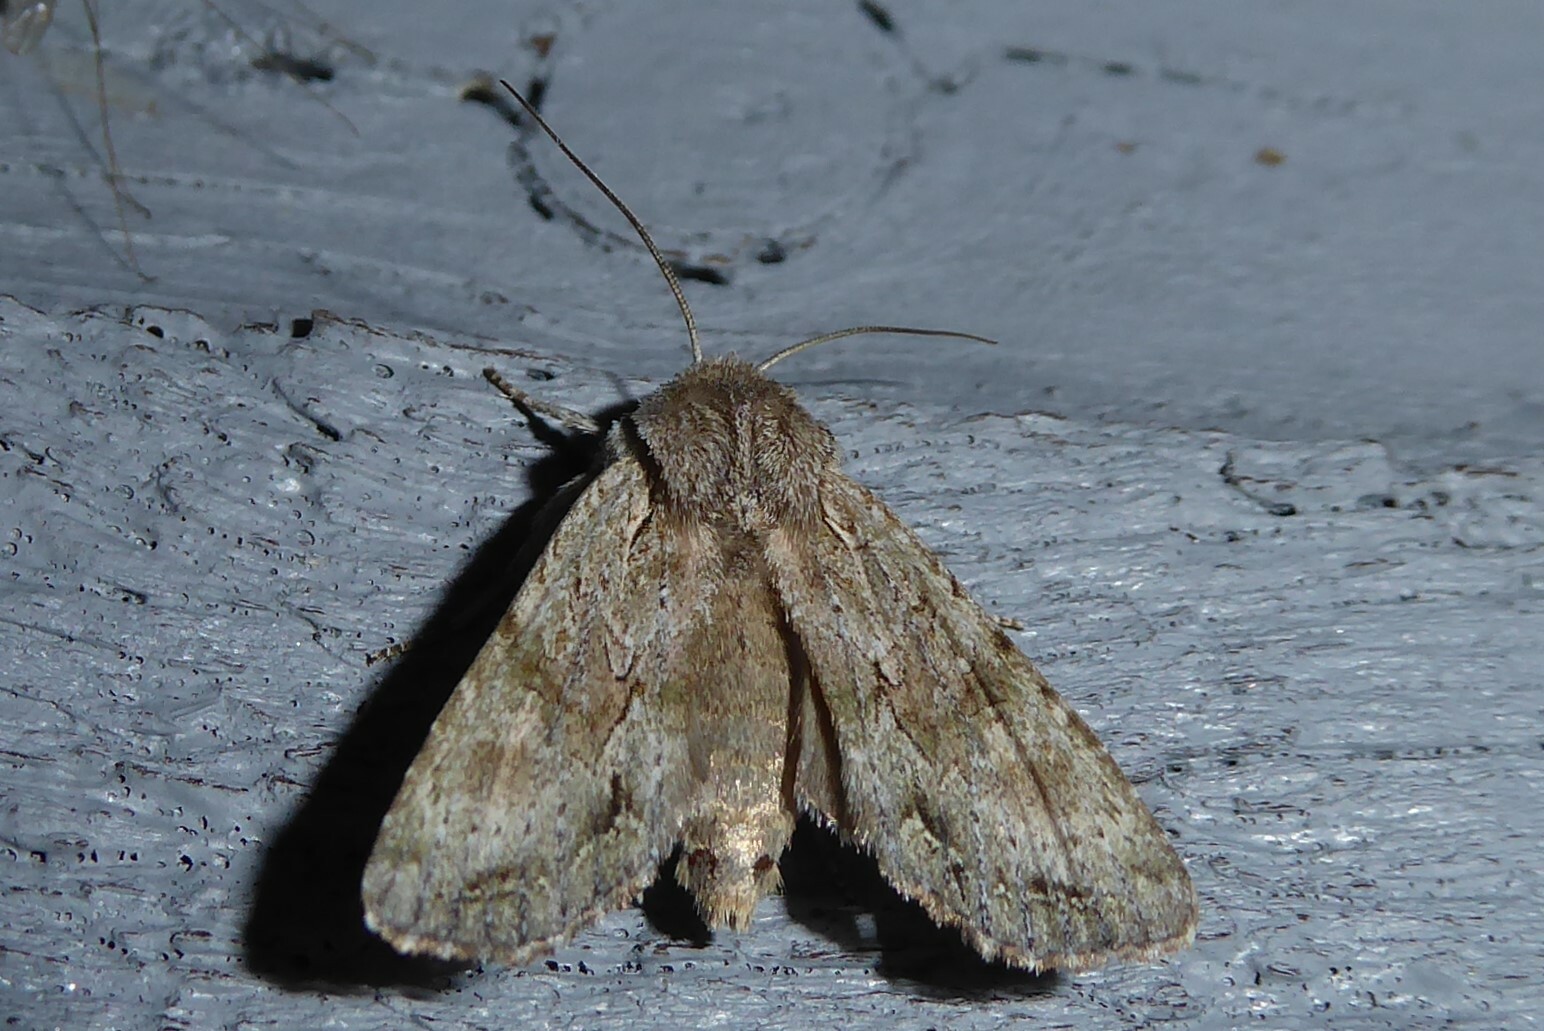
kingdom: Animalia
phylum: Arthropoda
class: Insecta
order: Lepidoptera
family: Noctuidae
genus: Ichneutica
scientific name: Ichneutica mutans
